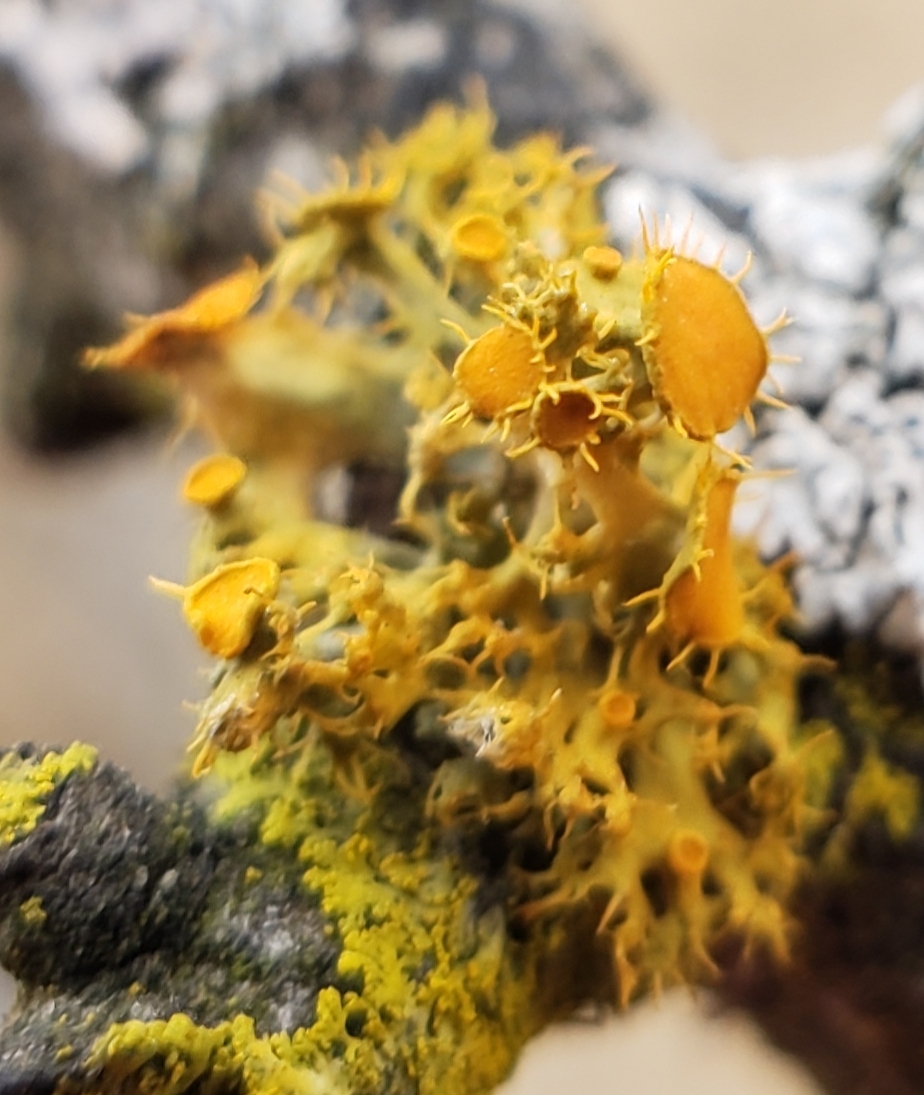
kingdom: Fungi
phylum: Ascomycota
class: Lecanoromycetes
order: Teloschistales
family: Teloschistaceae
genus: Niorma
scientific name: Niorma chrysophthalma
